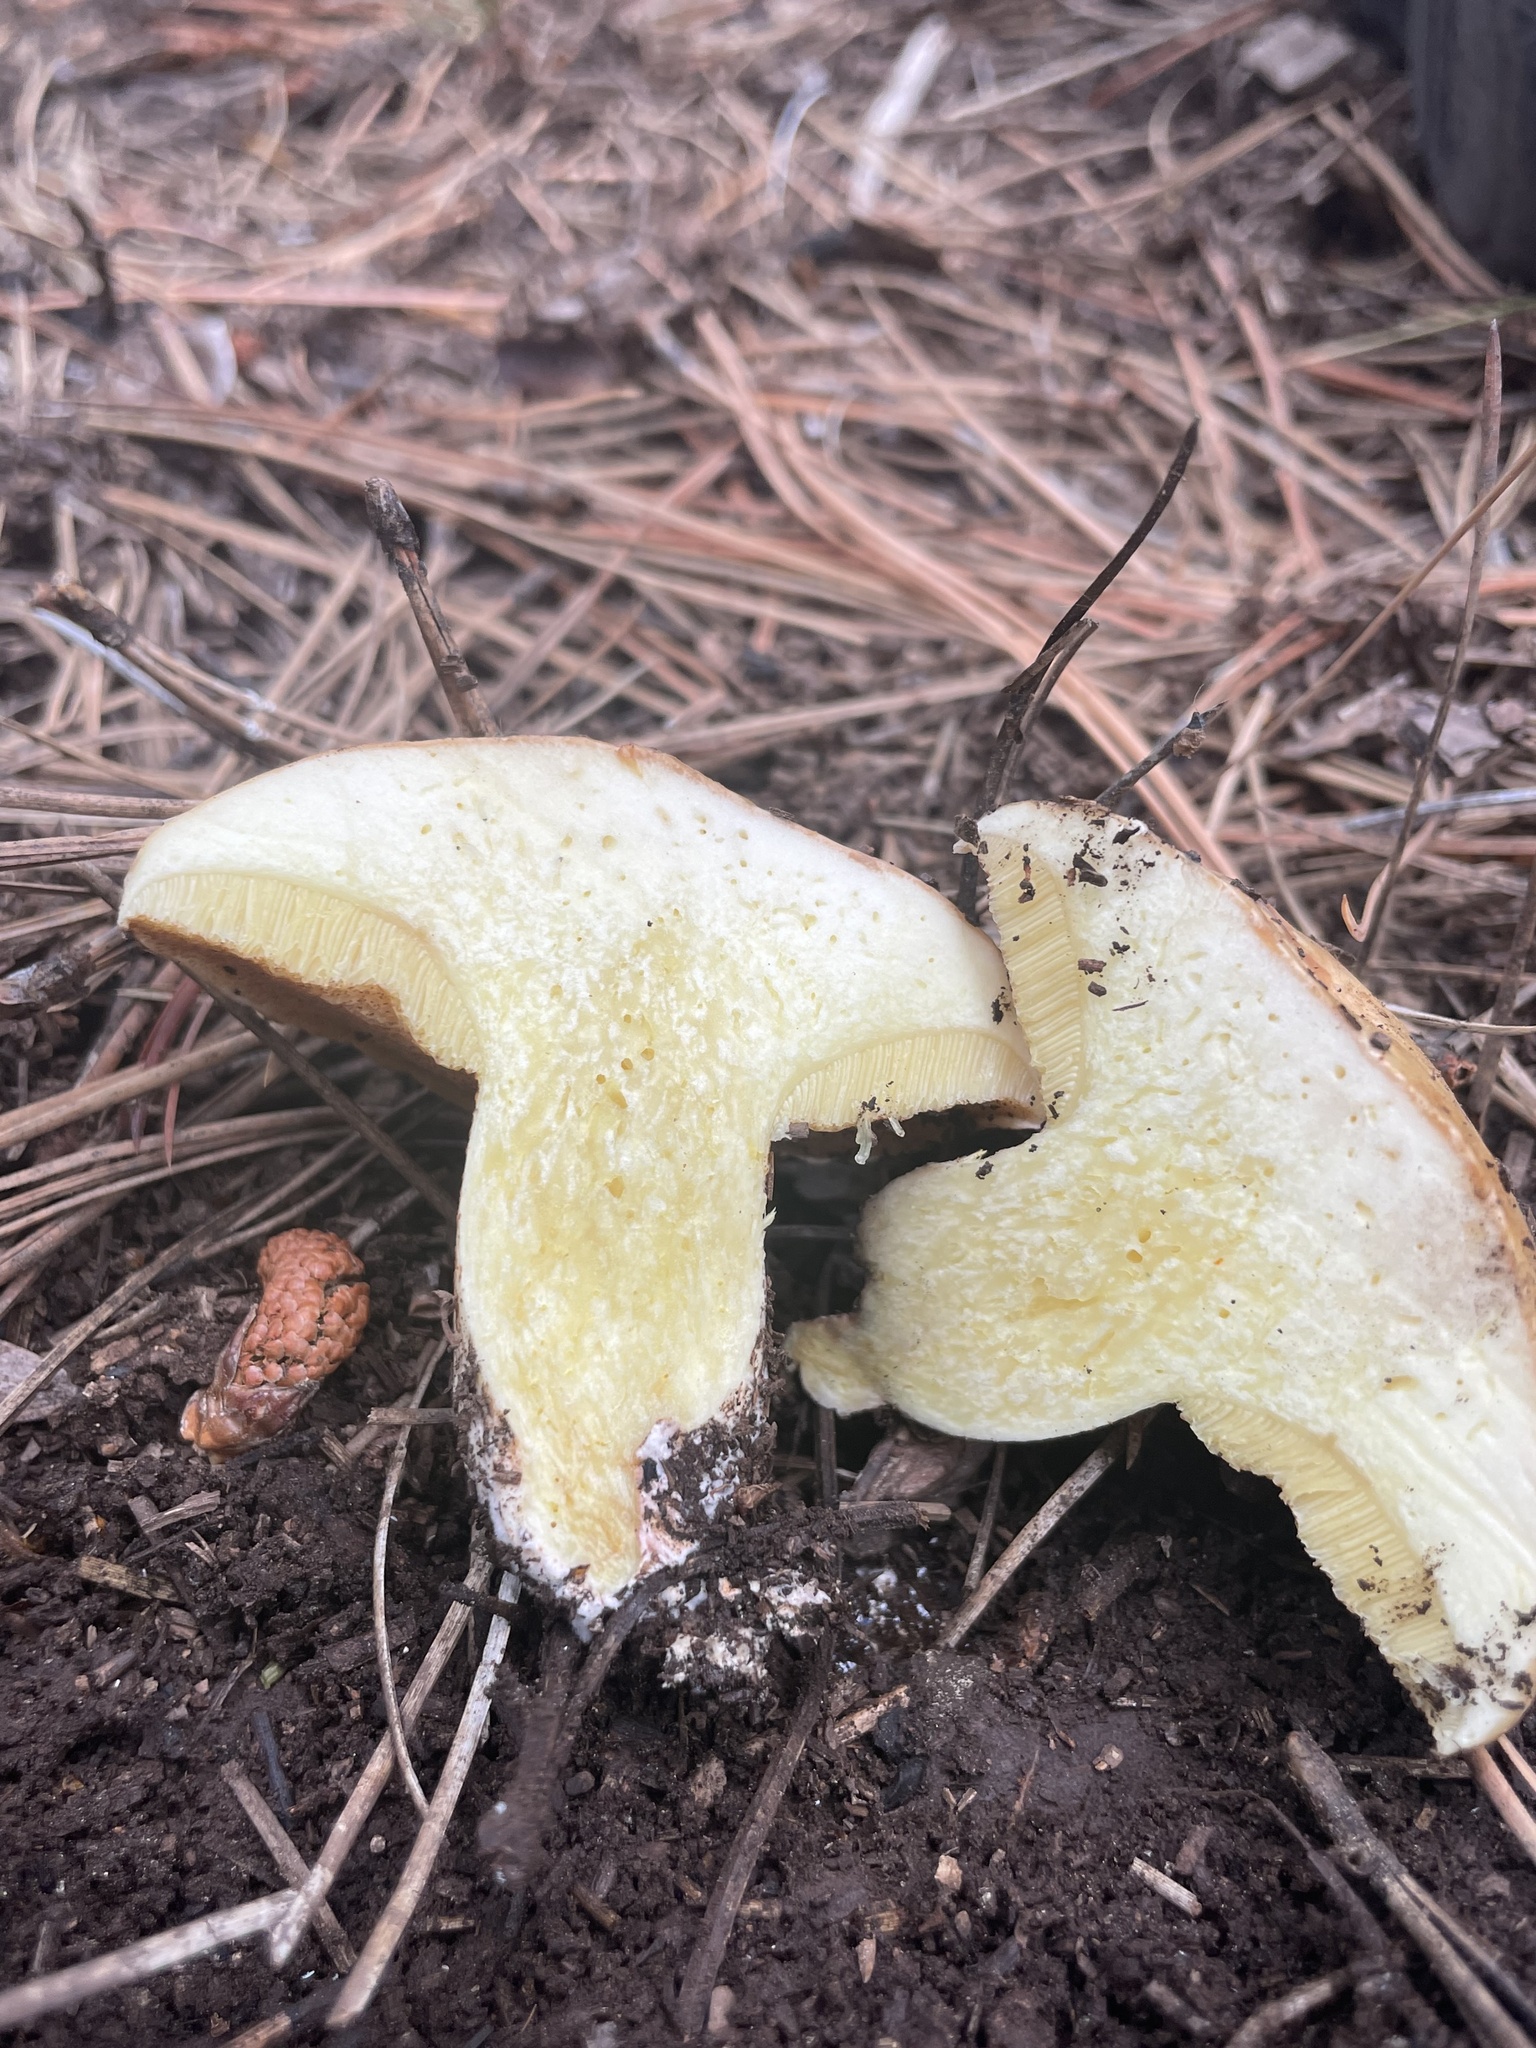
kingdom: Fungi
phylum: Basidiomycota
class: Agaricomycetes
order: Boletales
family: Suillaceae
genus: Suillus
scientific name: Suillus kaibabensis
